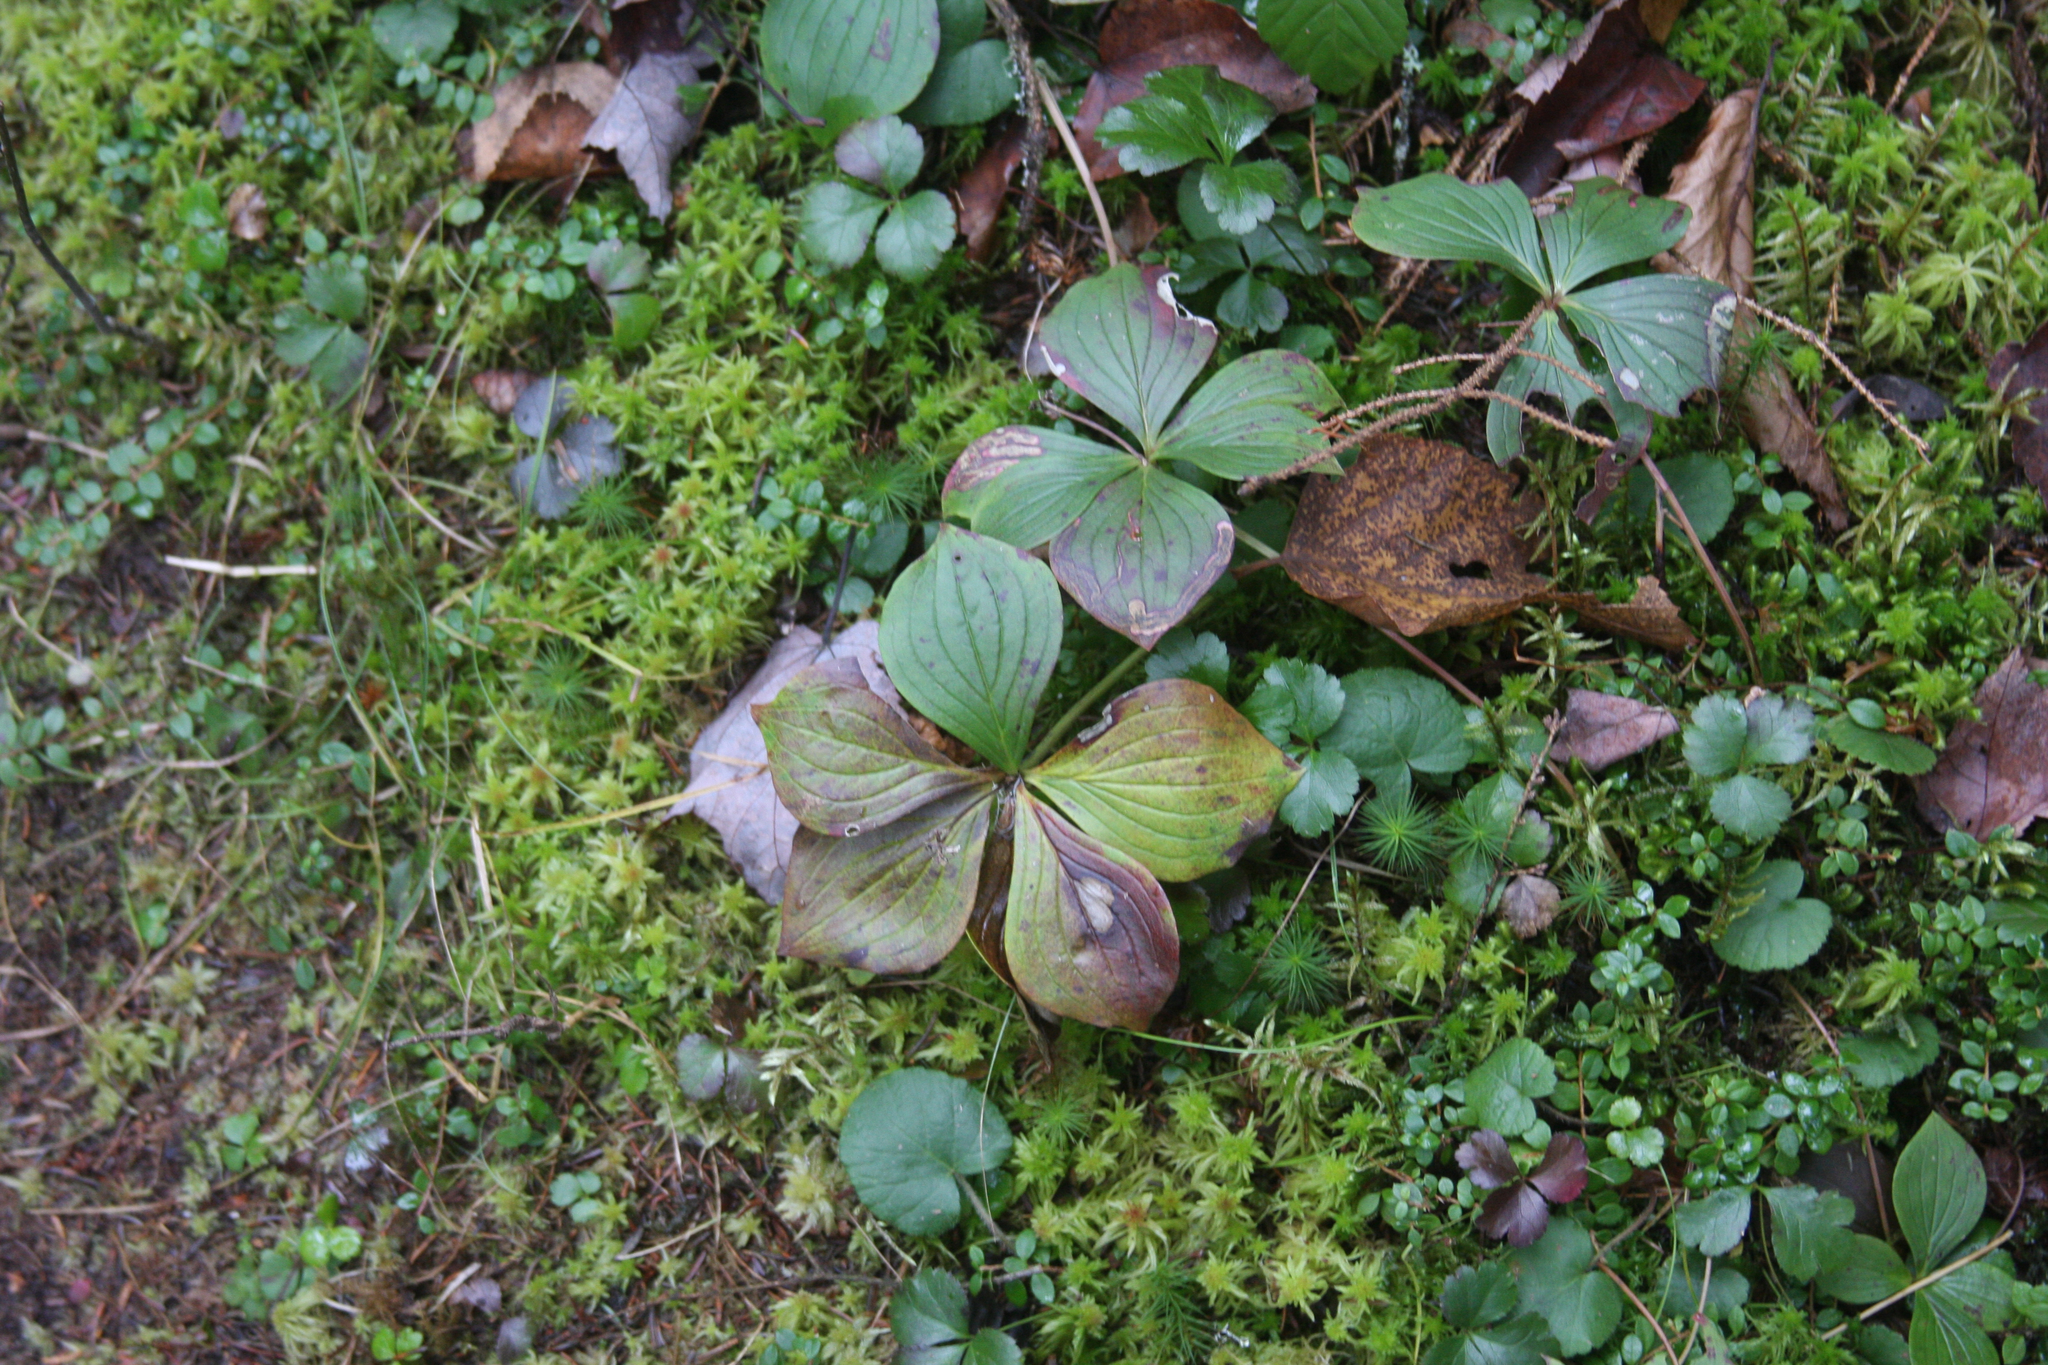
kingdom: Plantae
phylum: Tracheophyta
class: Magnoliopsida
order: Cornales
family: Cornaceae
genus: Cornus
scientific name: Cornus canadensis
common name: Creeping dogwood
